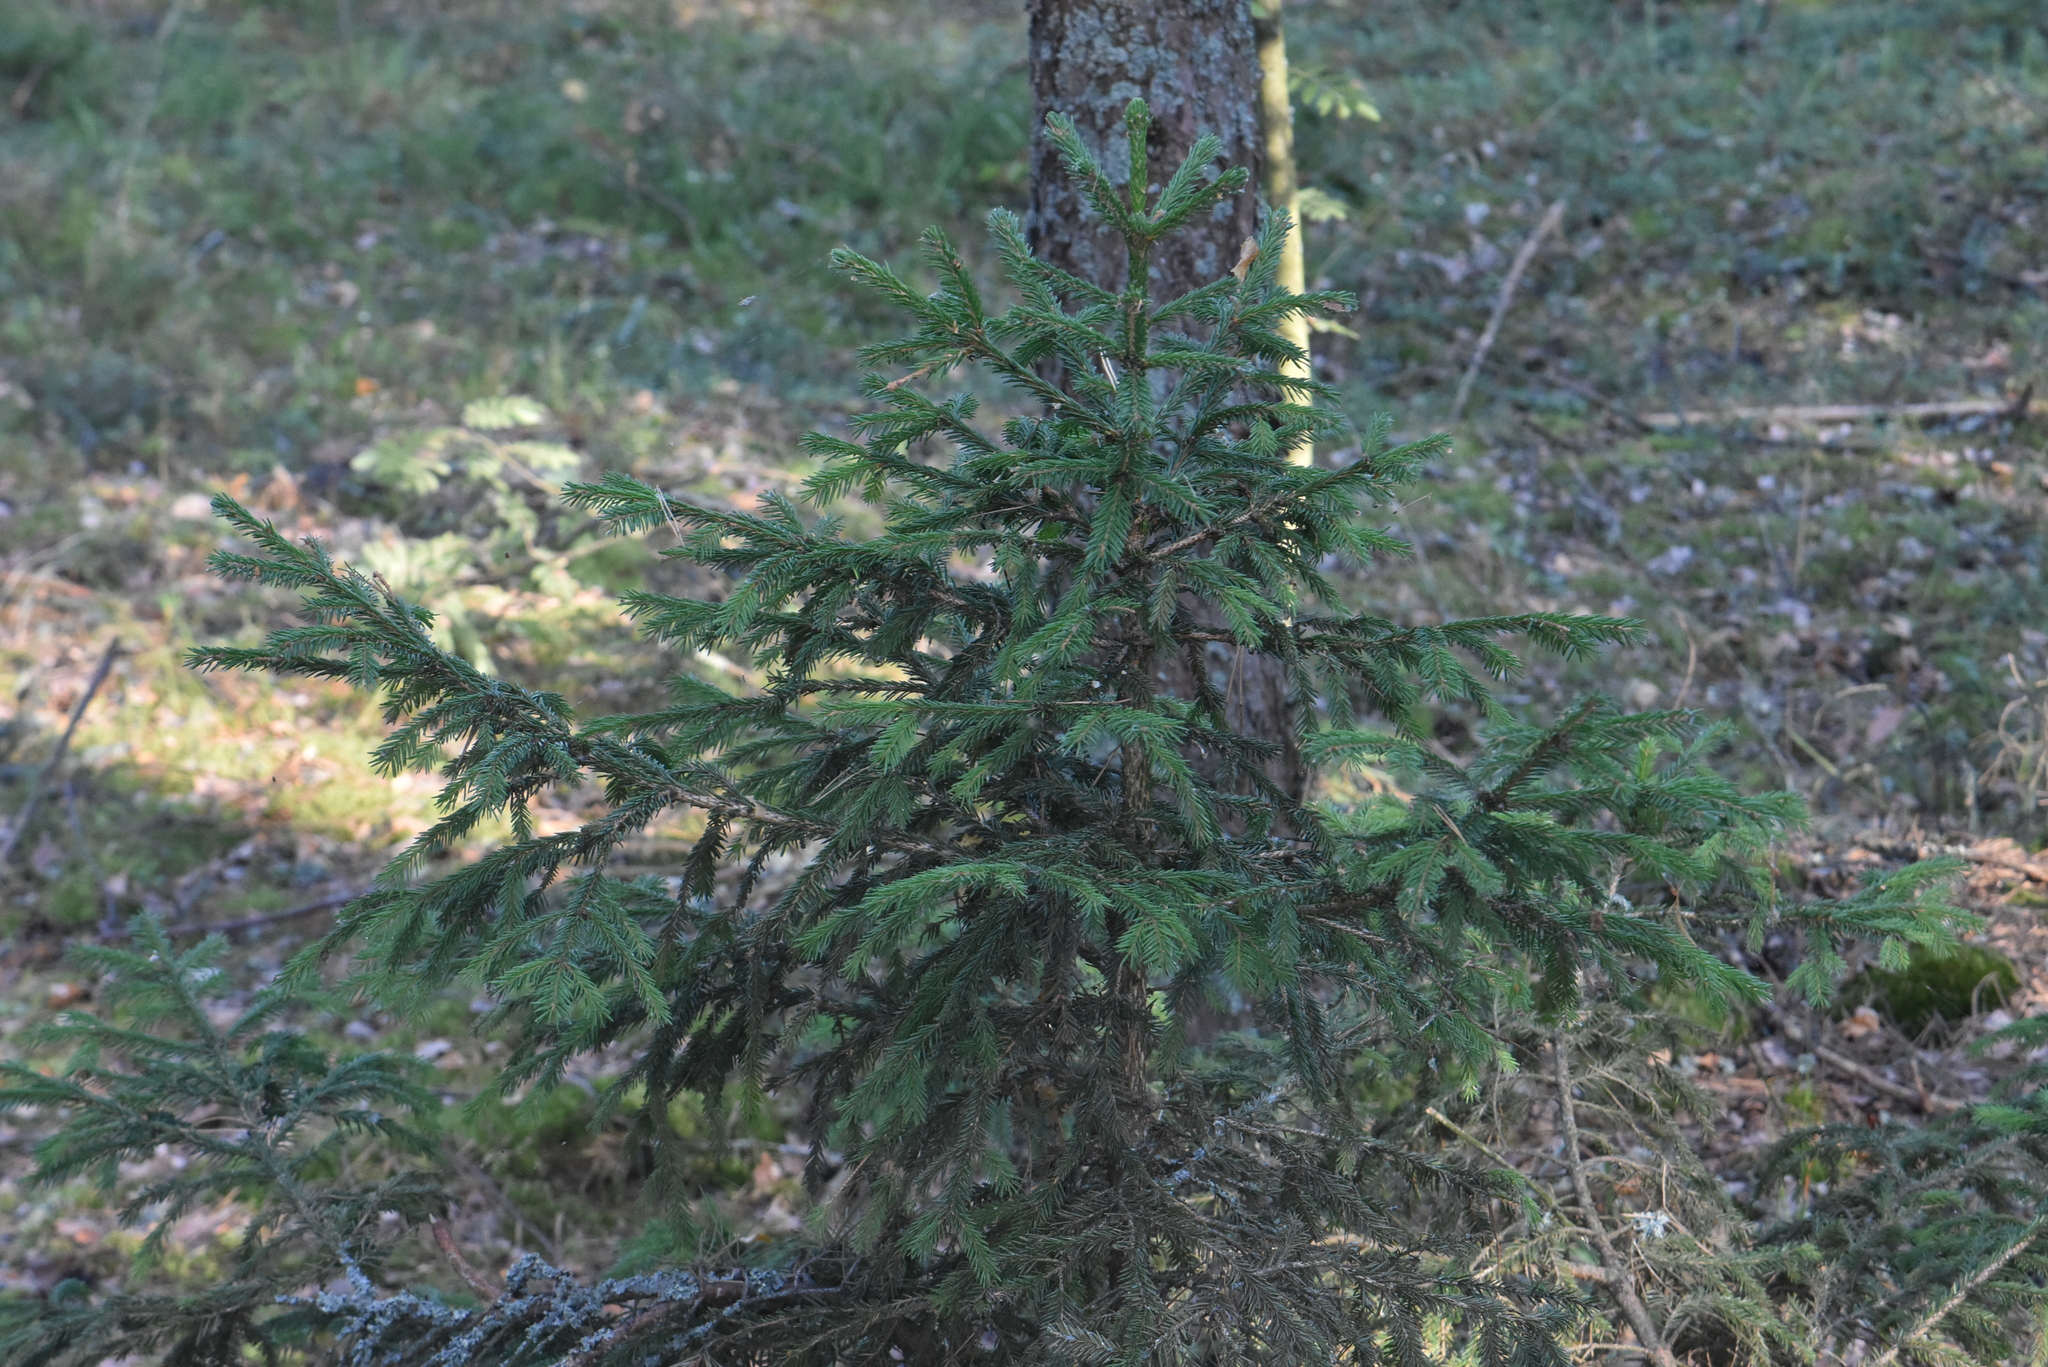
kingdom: Plantae
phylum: Tracheophyta
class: Pinopsida
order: Pinales
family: Pinaceae
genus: Picea
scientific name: Picea abies
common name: Norway spruce
